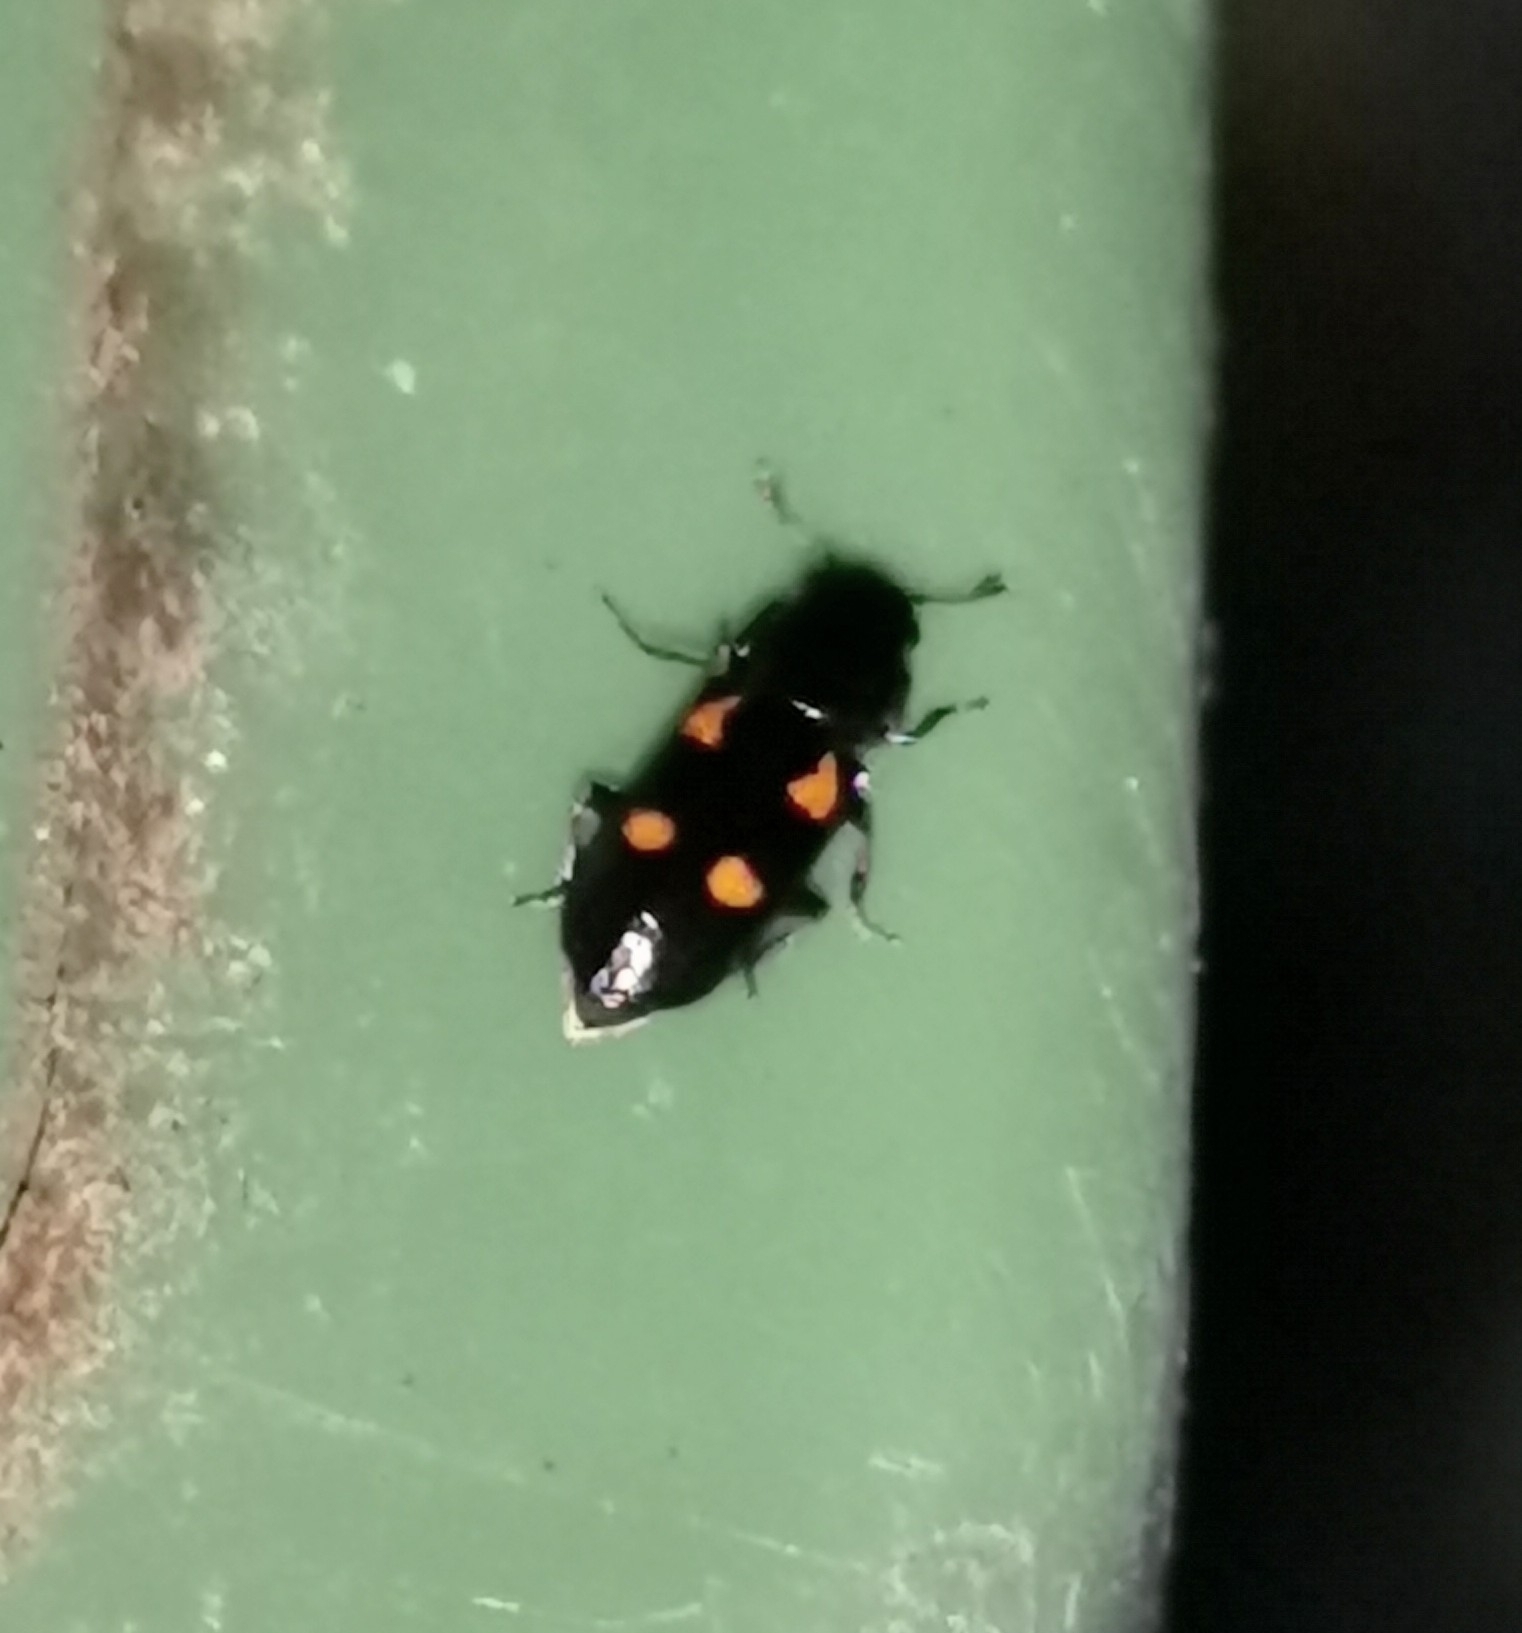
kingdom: Animalia
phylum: Arthropoda
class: Insecta
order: Coleoptera
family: Nitidulidae
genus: Glischrochilus
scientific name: Glischrochilus quadripunctatus
